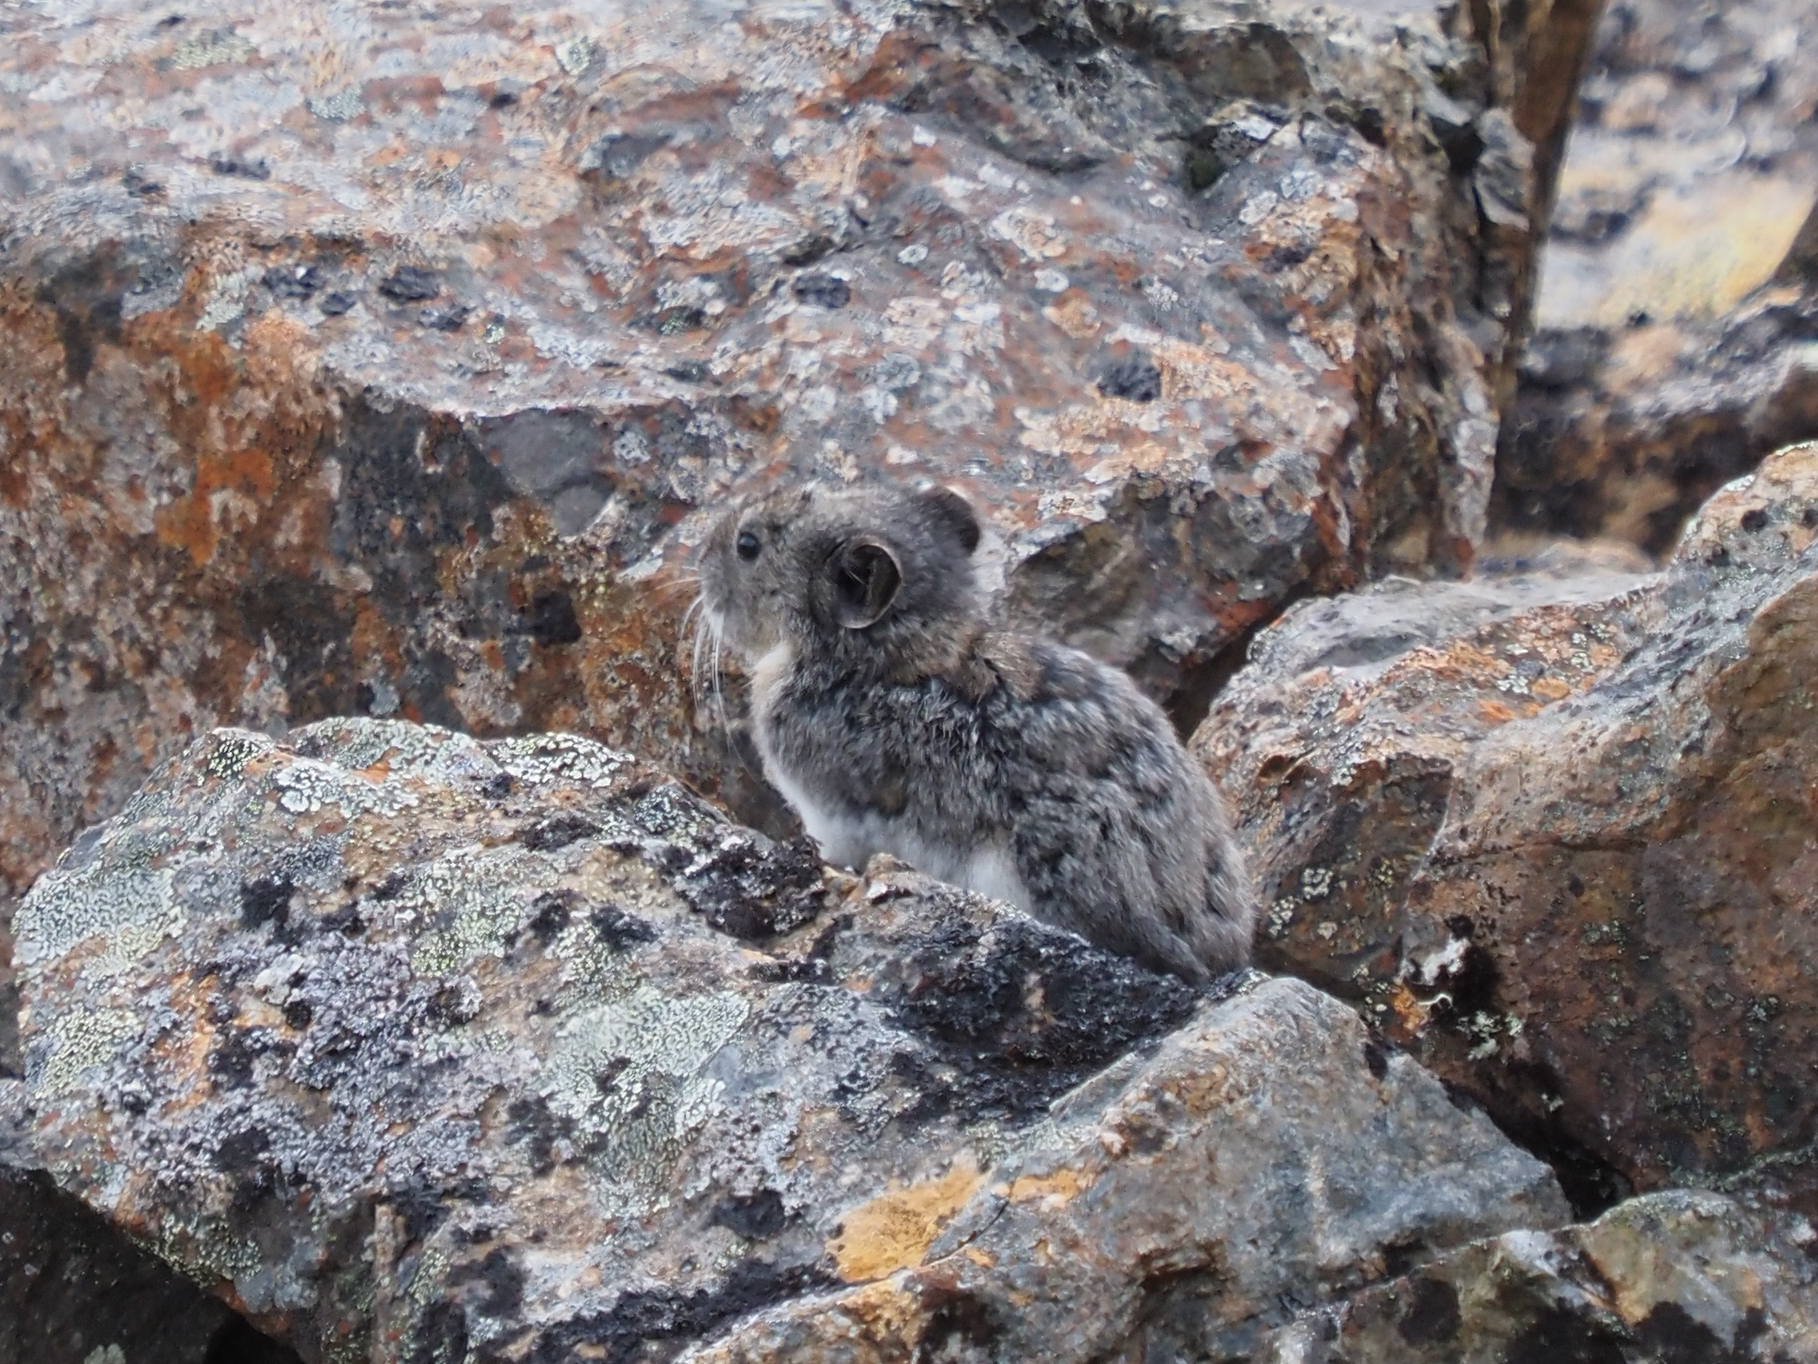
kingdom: Animalia
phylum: Chordata
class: Mammalia
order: Lagomorpha
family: Ochotonidae
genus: Ochotona
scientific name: Ochotona collaris
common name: Collared pika
